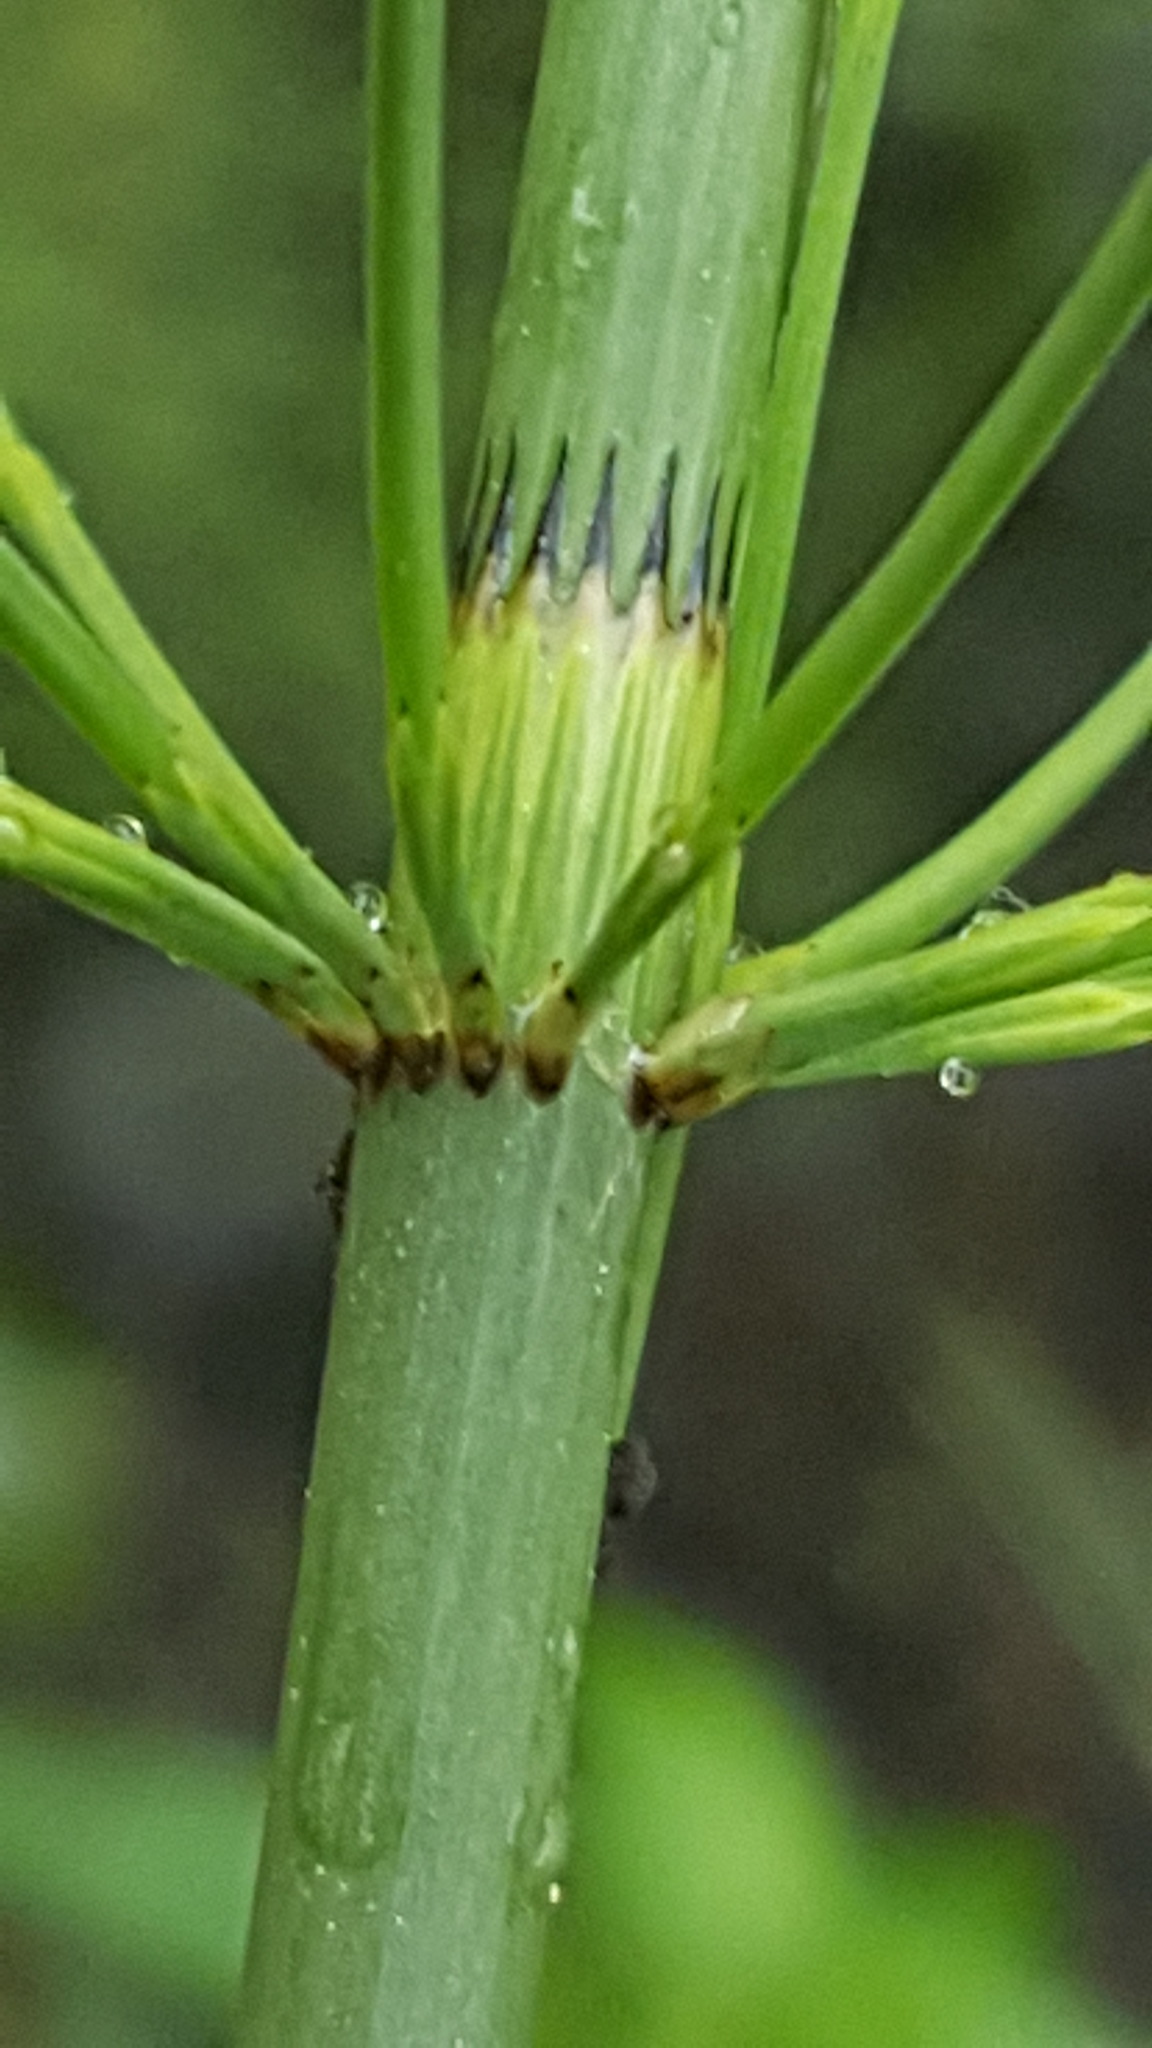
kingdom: Plantae
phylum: Tracheophyta
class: Polypodiopsida
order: Equisetales
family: Equisetaceae
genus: Equisetum
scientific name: Equisetum fluviatile
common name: Water horsetail
